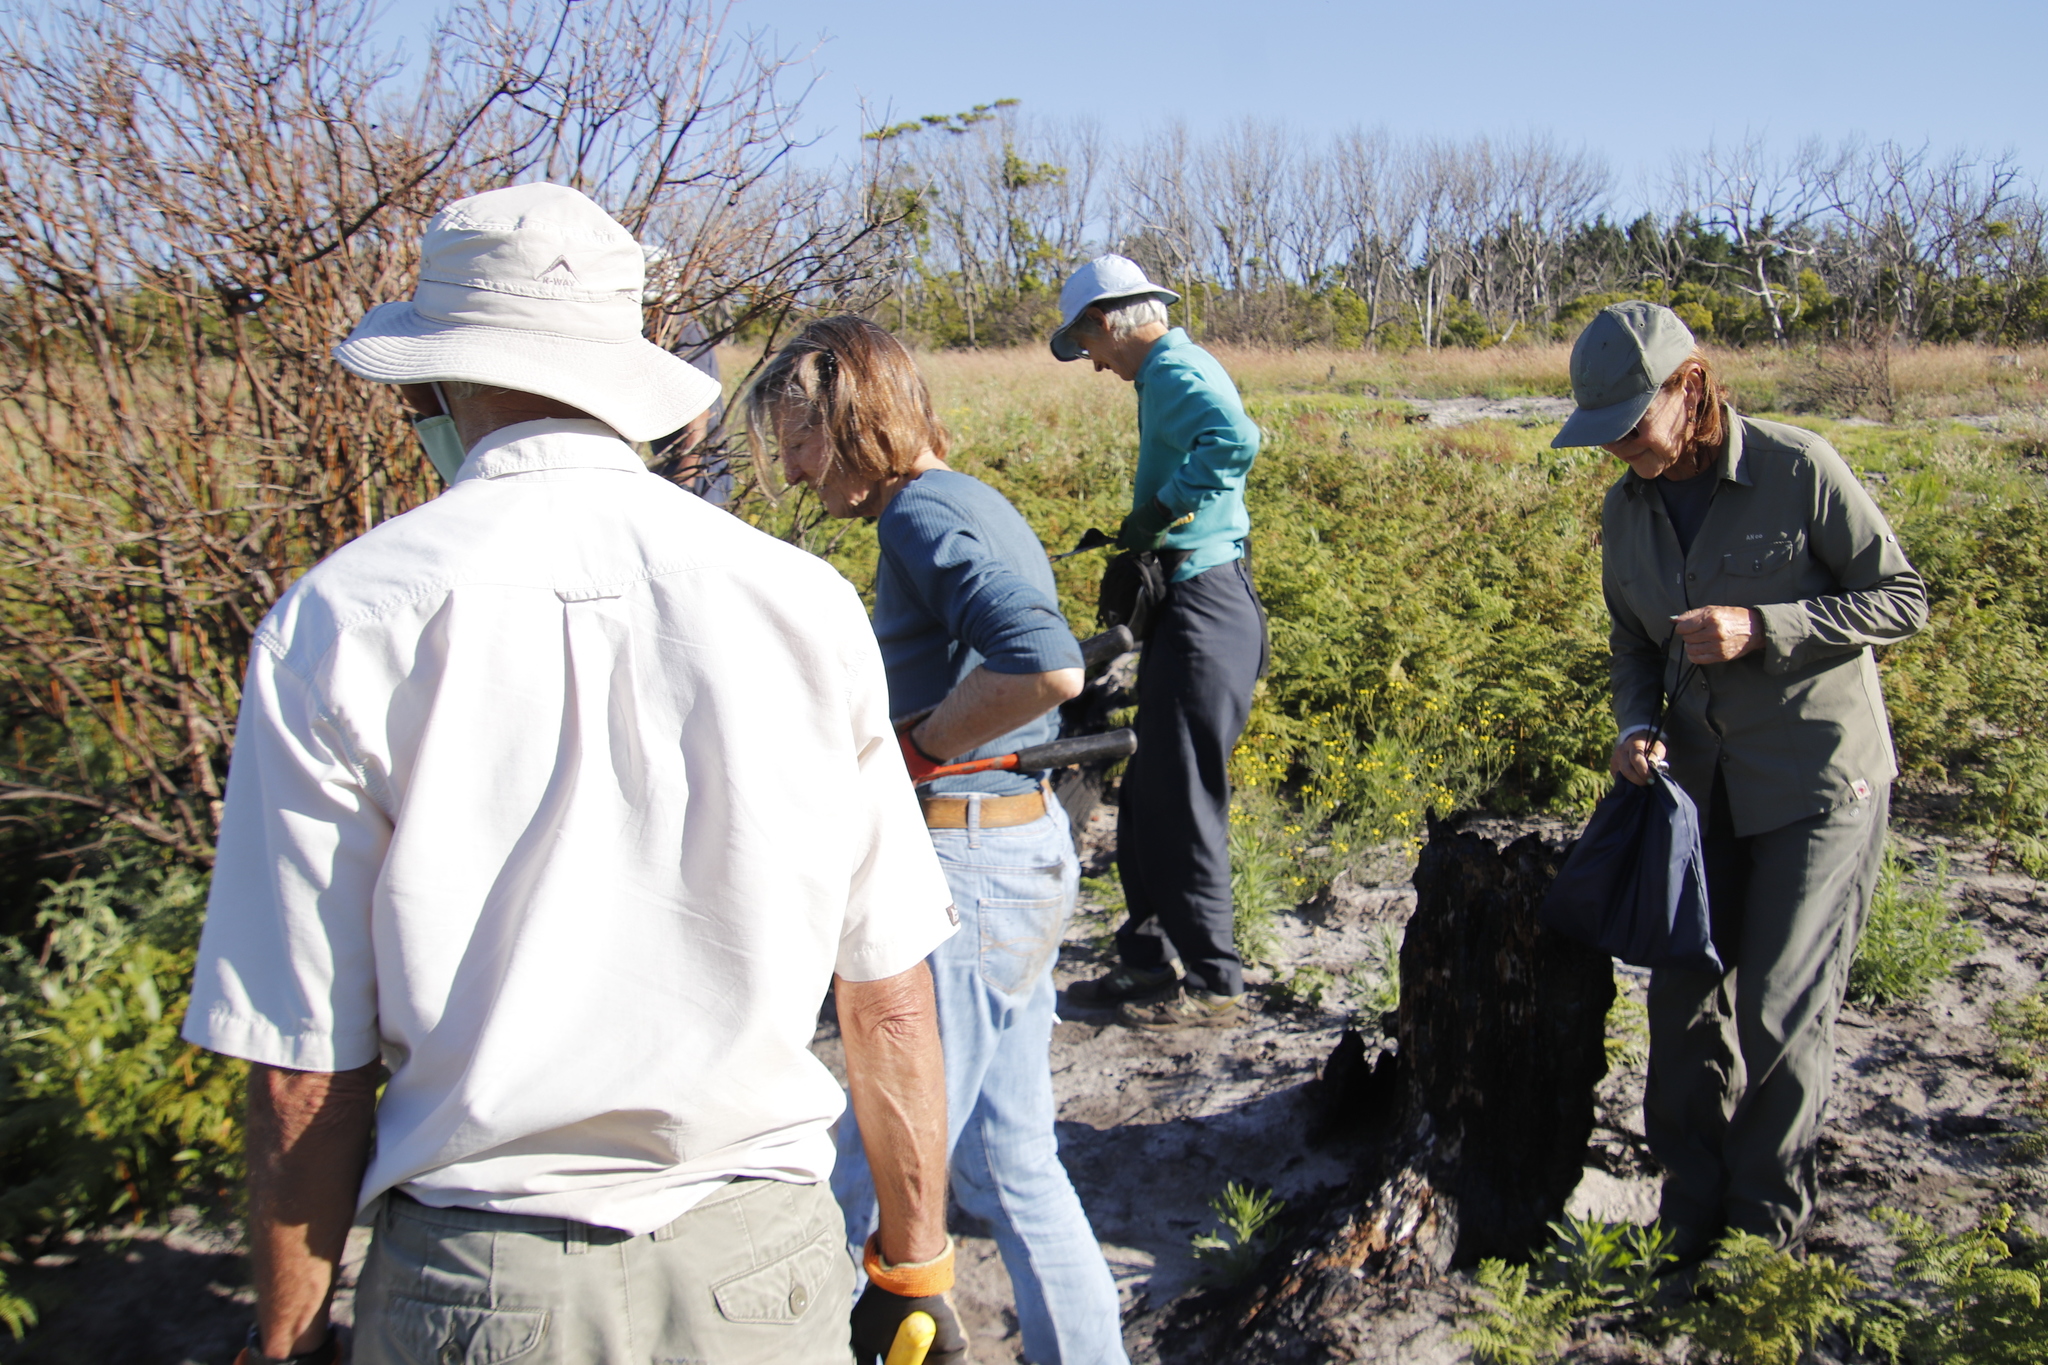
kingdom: Plantae
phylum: Tracheophyta
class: Polypodiopsida
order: Polypodiales
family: Dennstaedtiaceae
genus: Pteridium
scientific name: Pteridium aquilinum
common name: Bracken
